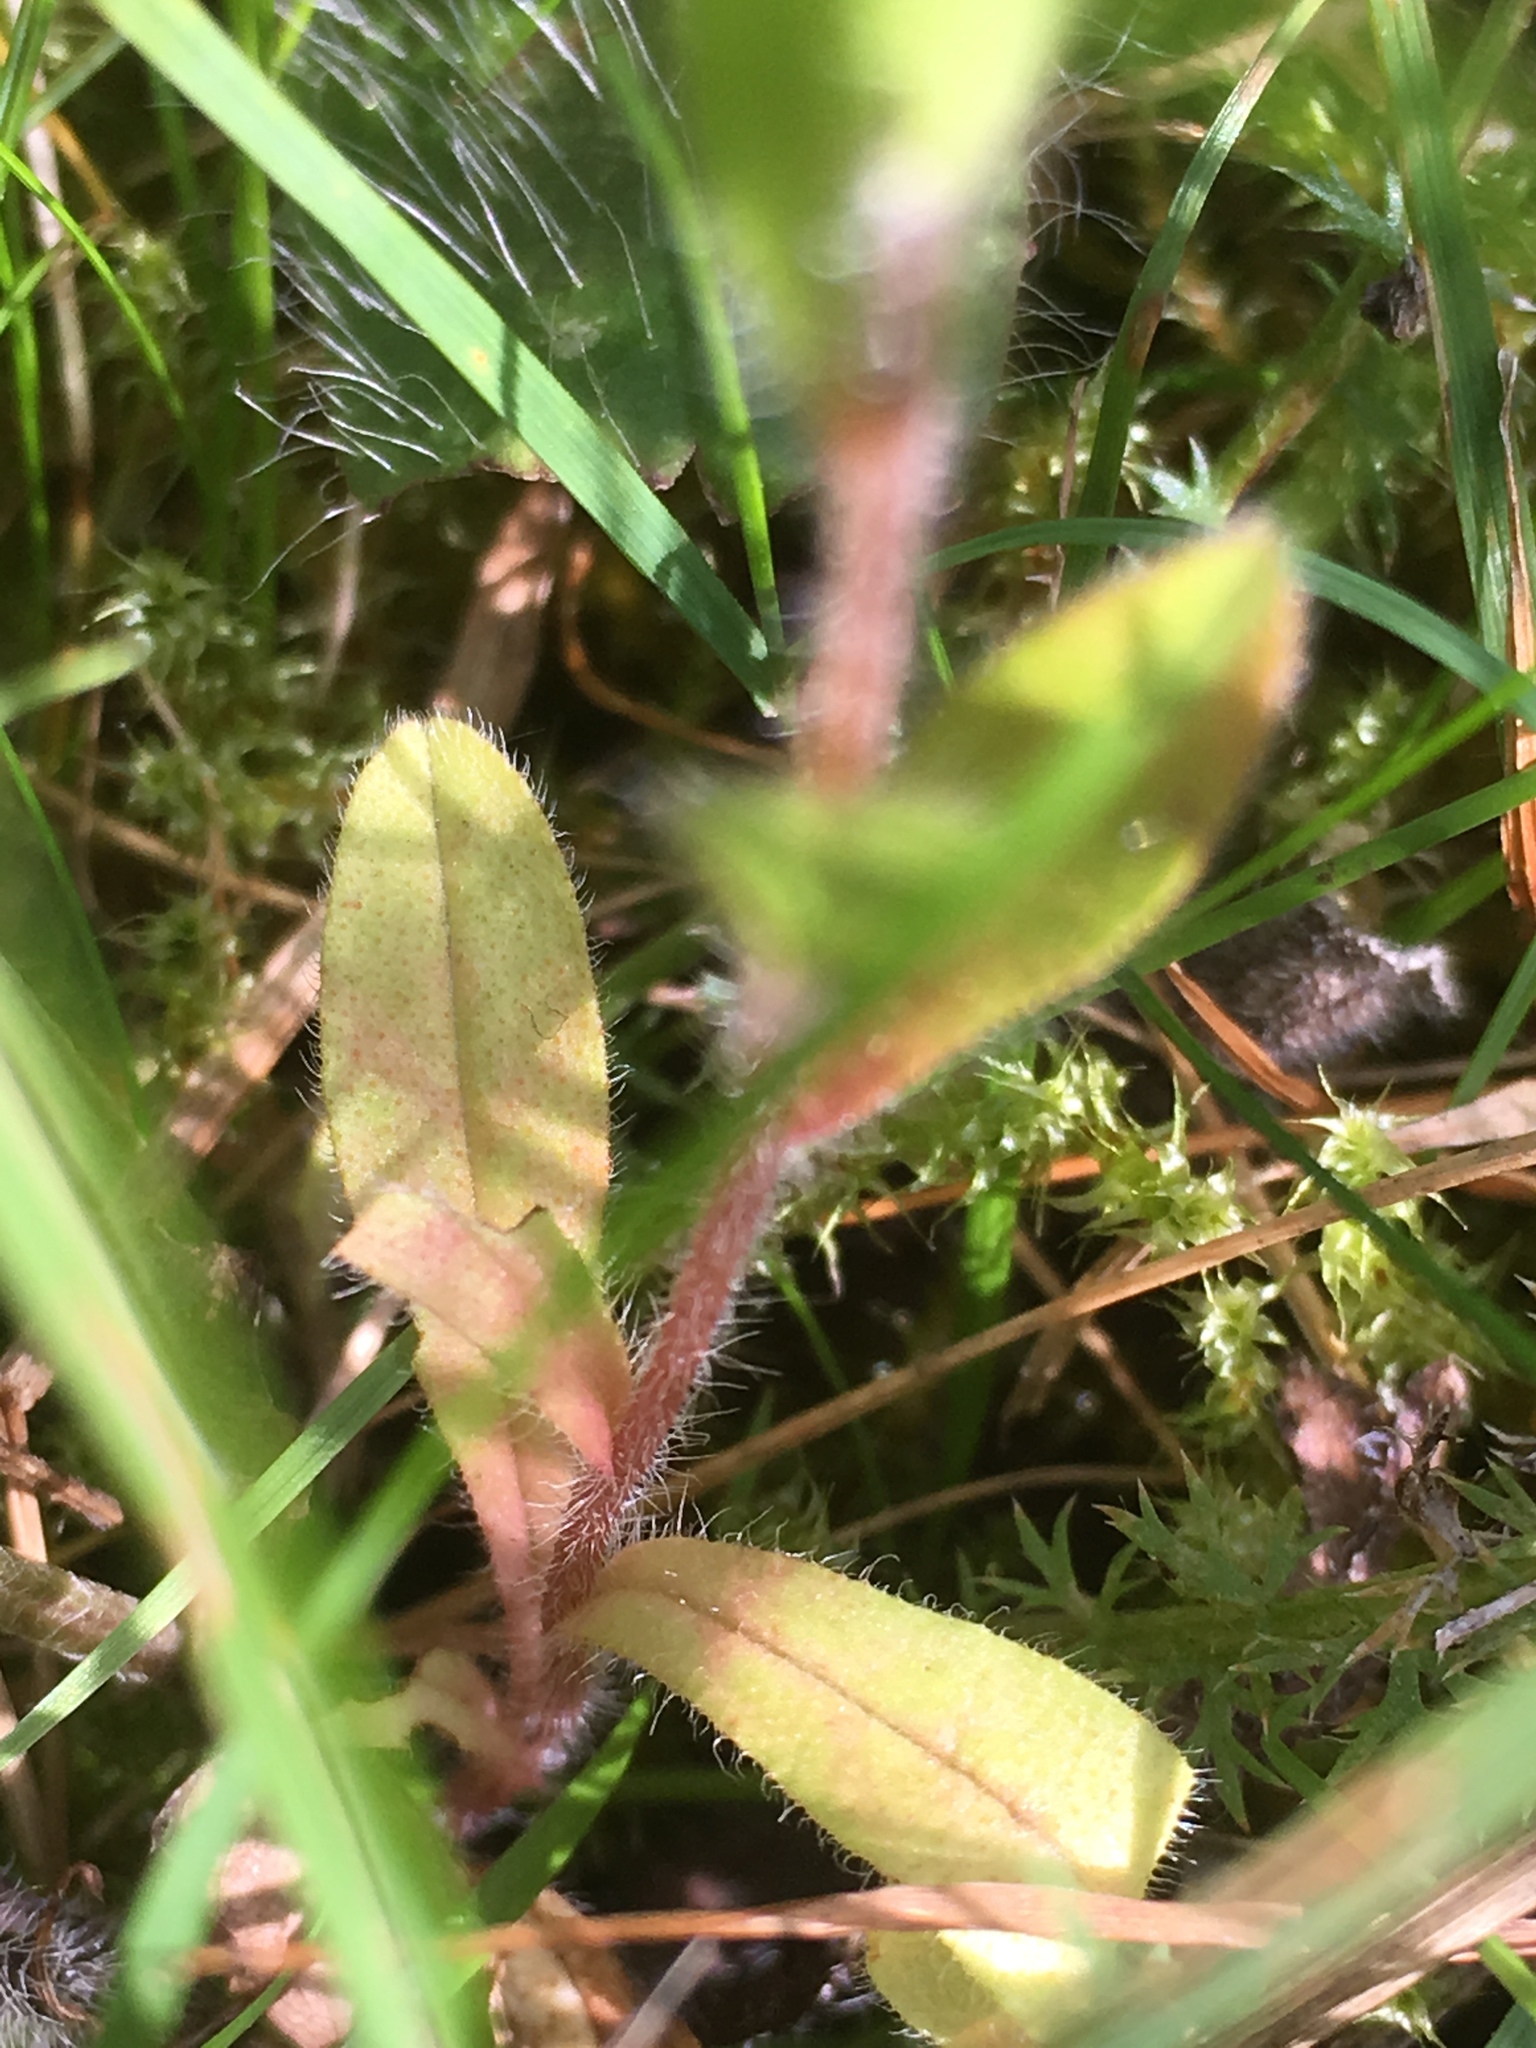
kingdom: Plantae
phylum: Tracheophyta
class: Magnoliopsida
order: Boraginales
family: Boraginaceae
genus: Myosotis
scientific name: Myosotis arvensis
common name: Field forget-me-not
